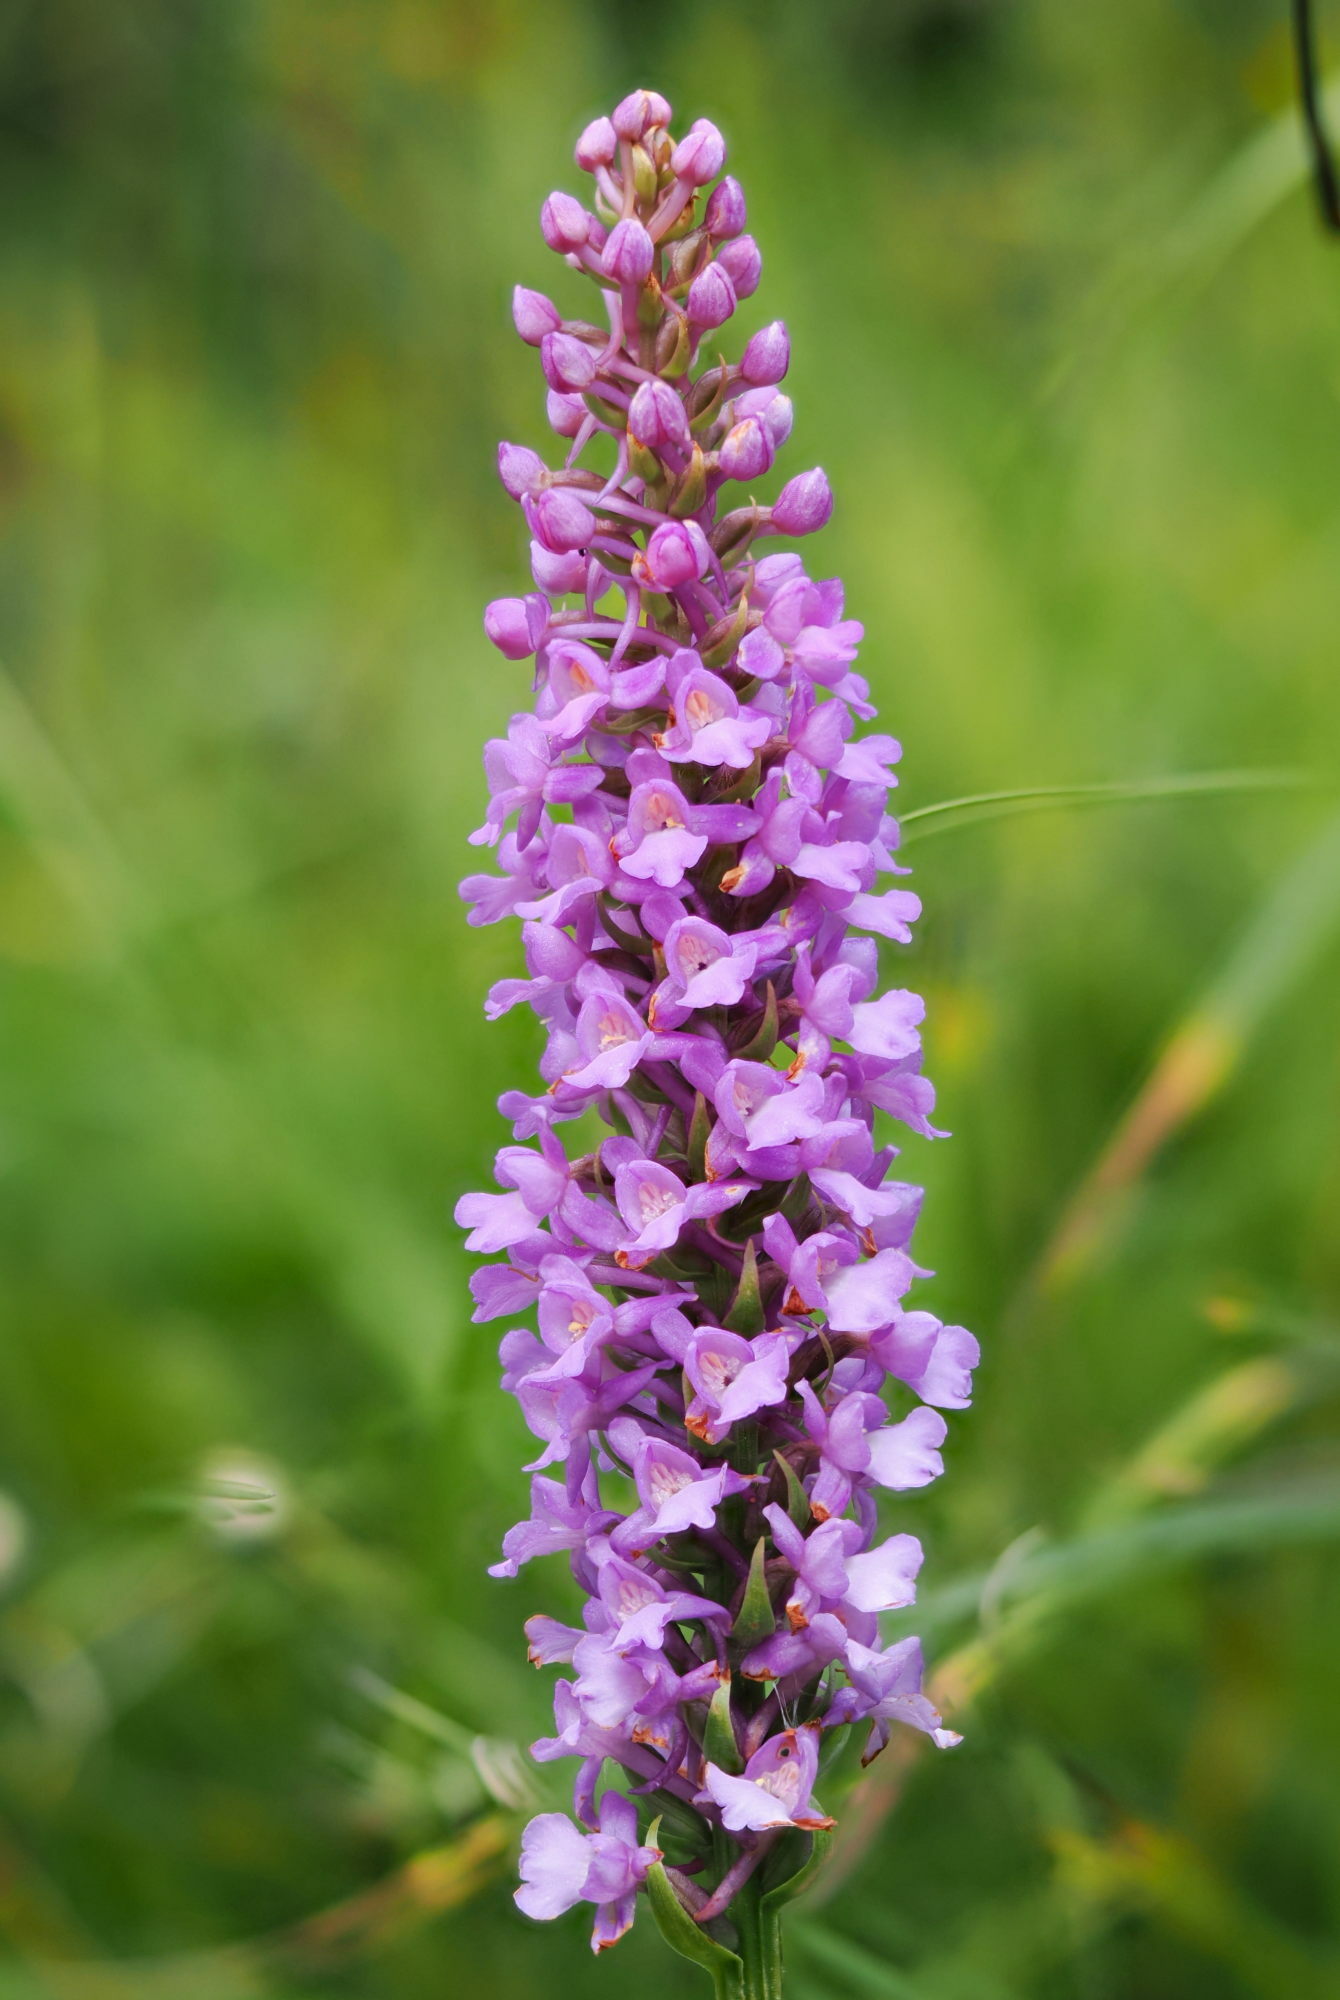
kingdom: Plantae
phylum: Tracheophyta
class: Liliopsida
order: Asparagales
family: Orchidaceae
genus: Gymnadenia
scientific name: Gymnadenia conopsea
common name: Fragrant orchid
